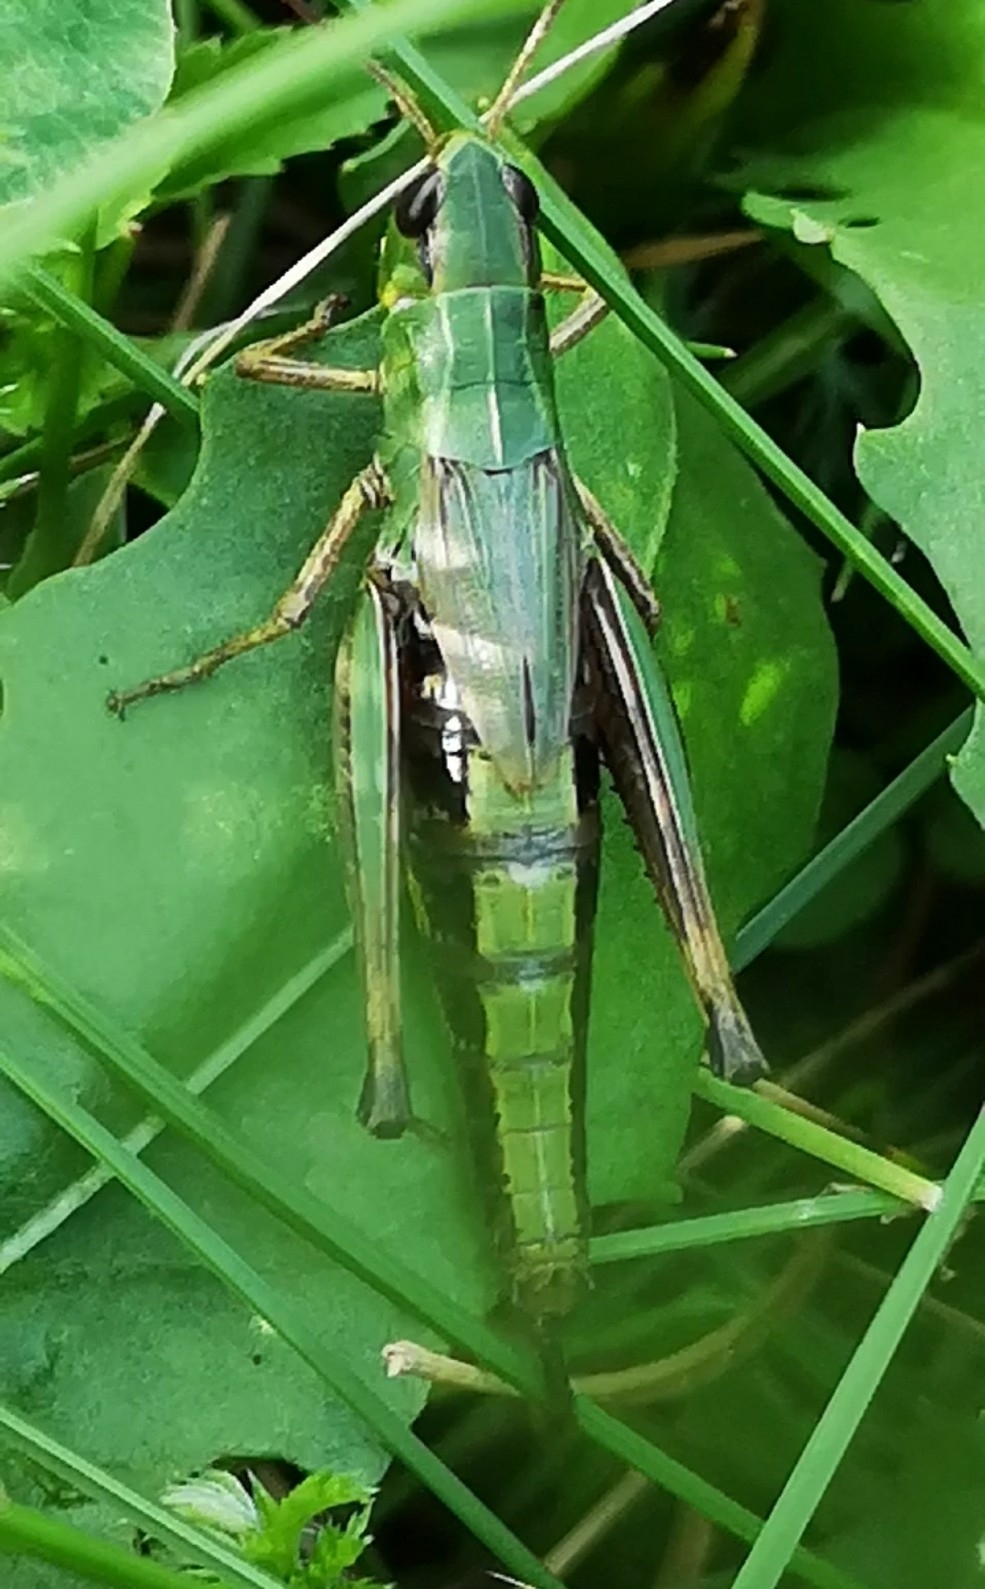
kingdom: Animalia
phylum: Arthropoda
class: Insecta
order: Orthoptera
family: Acrididae
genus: Pseudochorthippus
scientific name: Pseudochorthippus parallelus
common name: Meadow grasshopper
